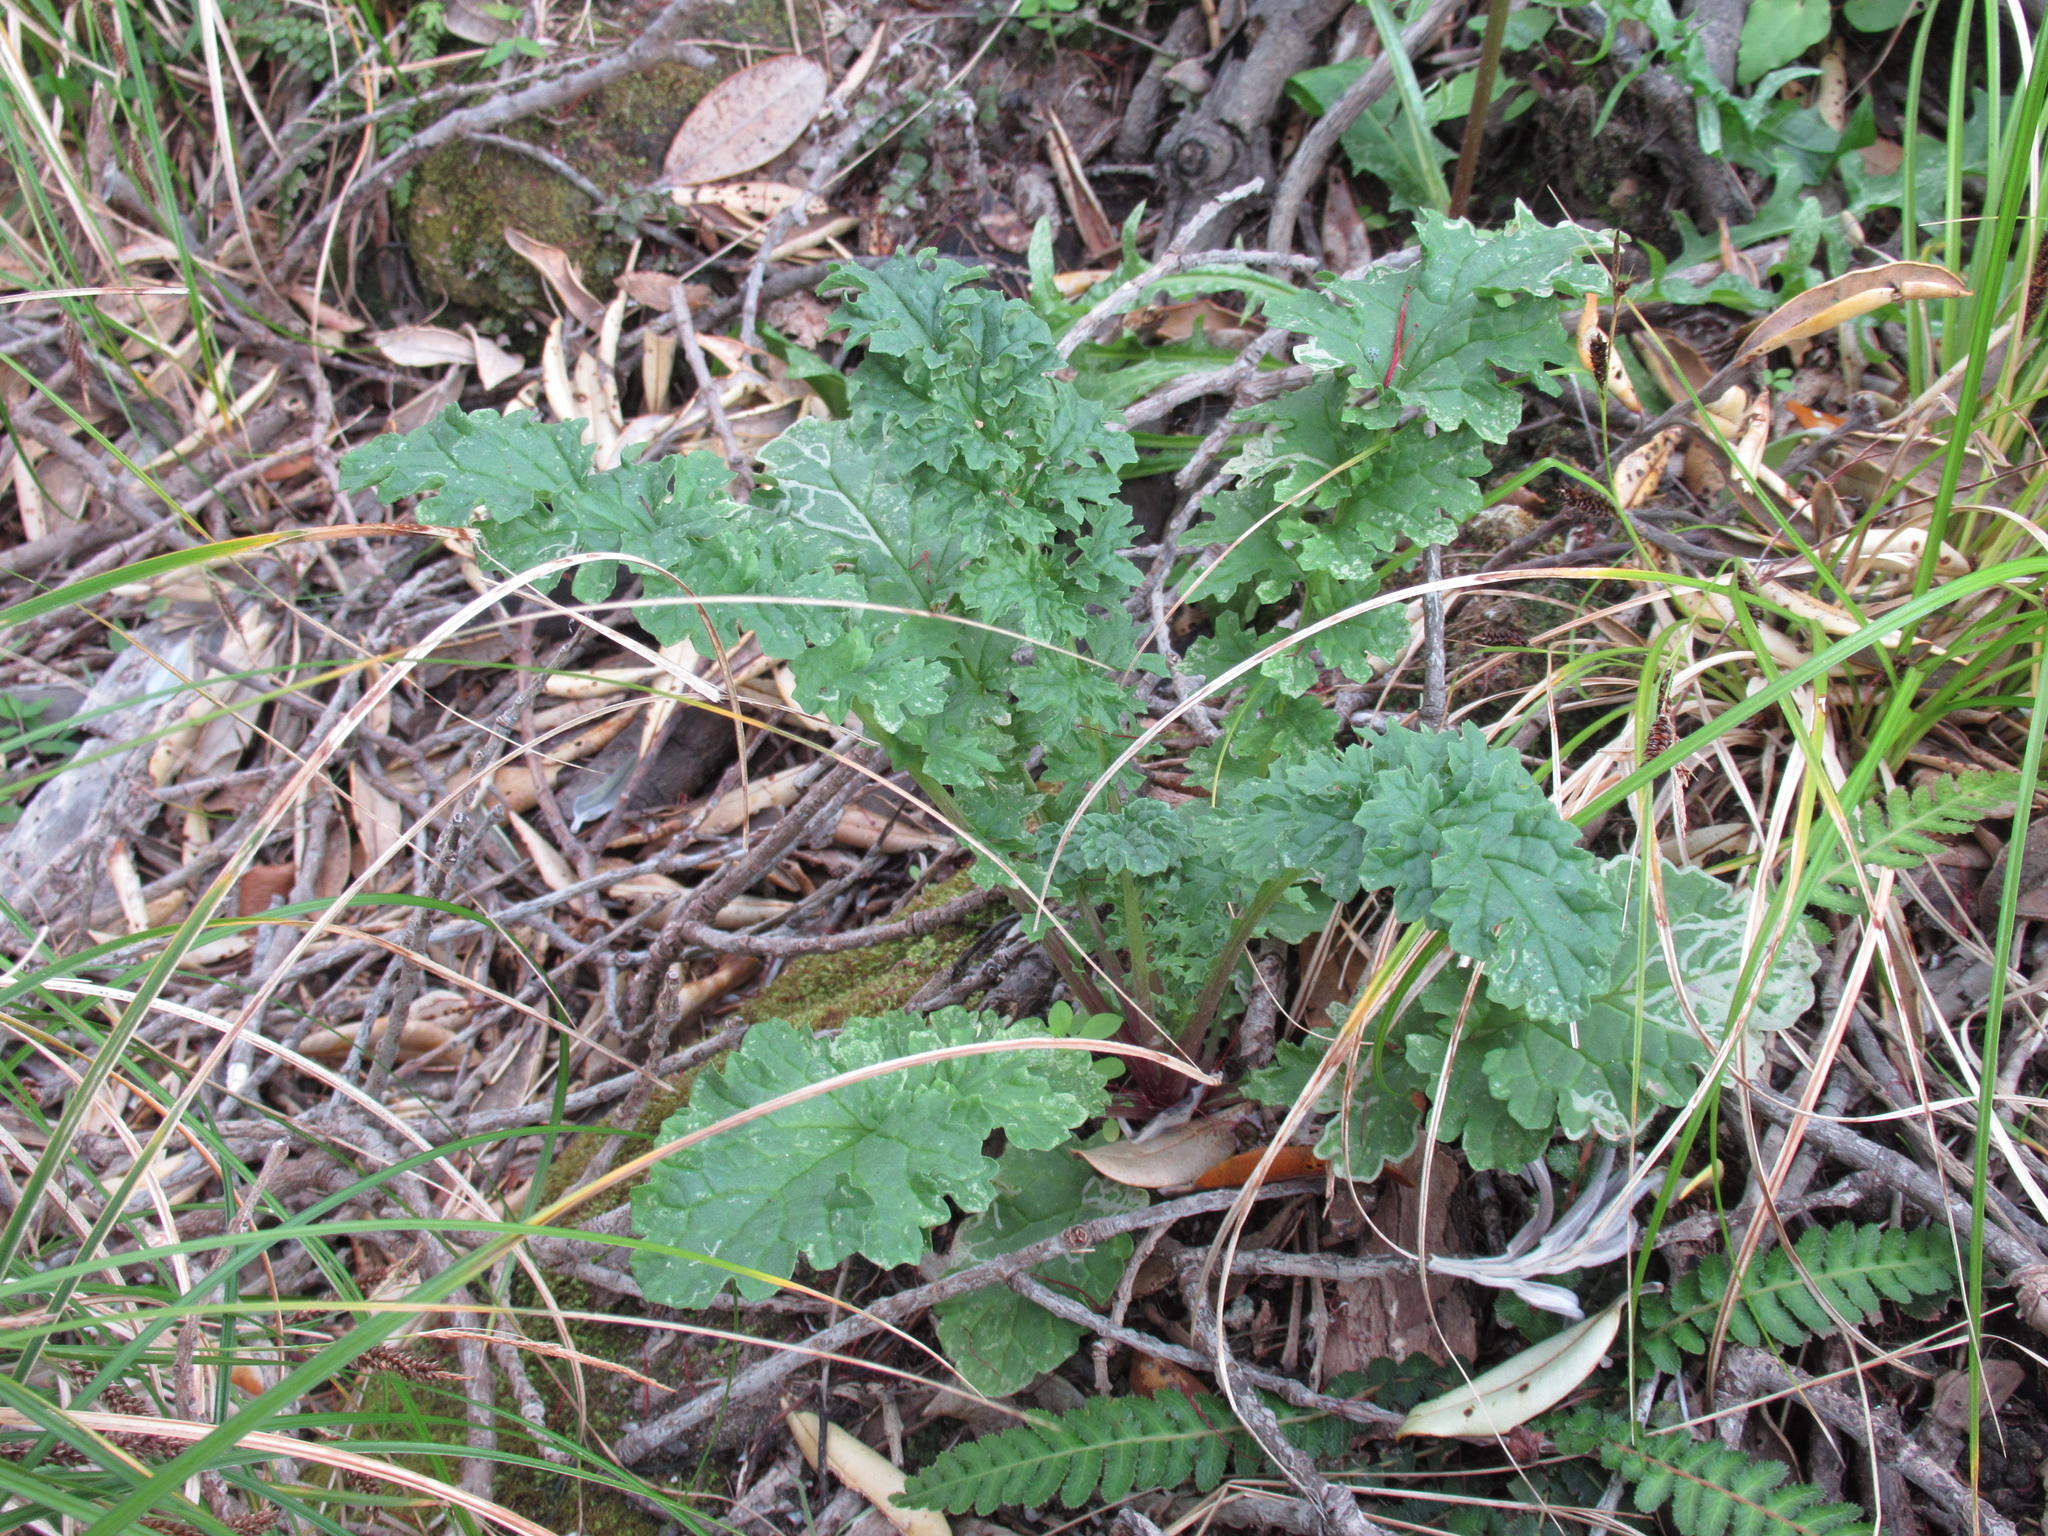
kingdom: Plantae
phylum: Tracheophyta
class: Magnoliopsida
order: Asterales
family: Asteraceae
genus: Jacobaea
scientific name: Jacobaea vulgaris
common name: Stinking willie
